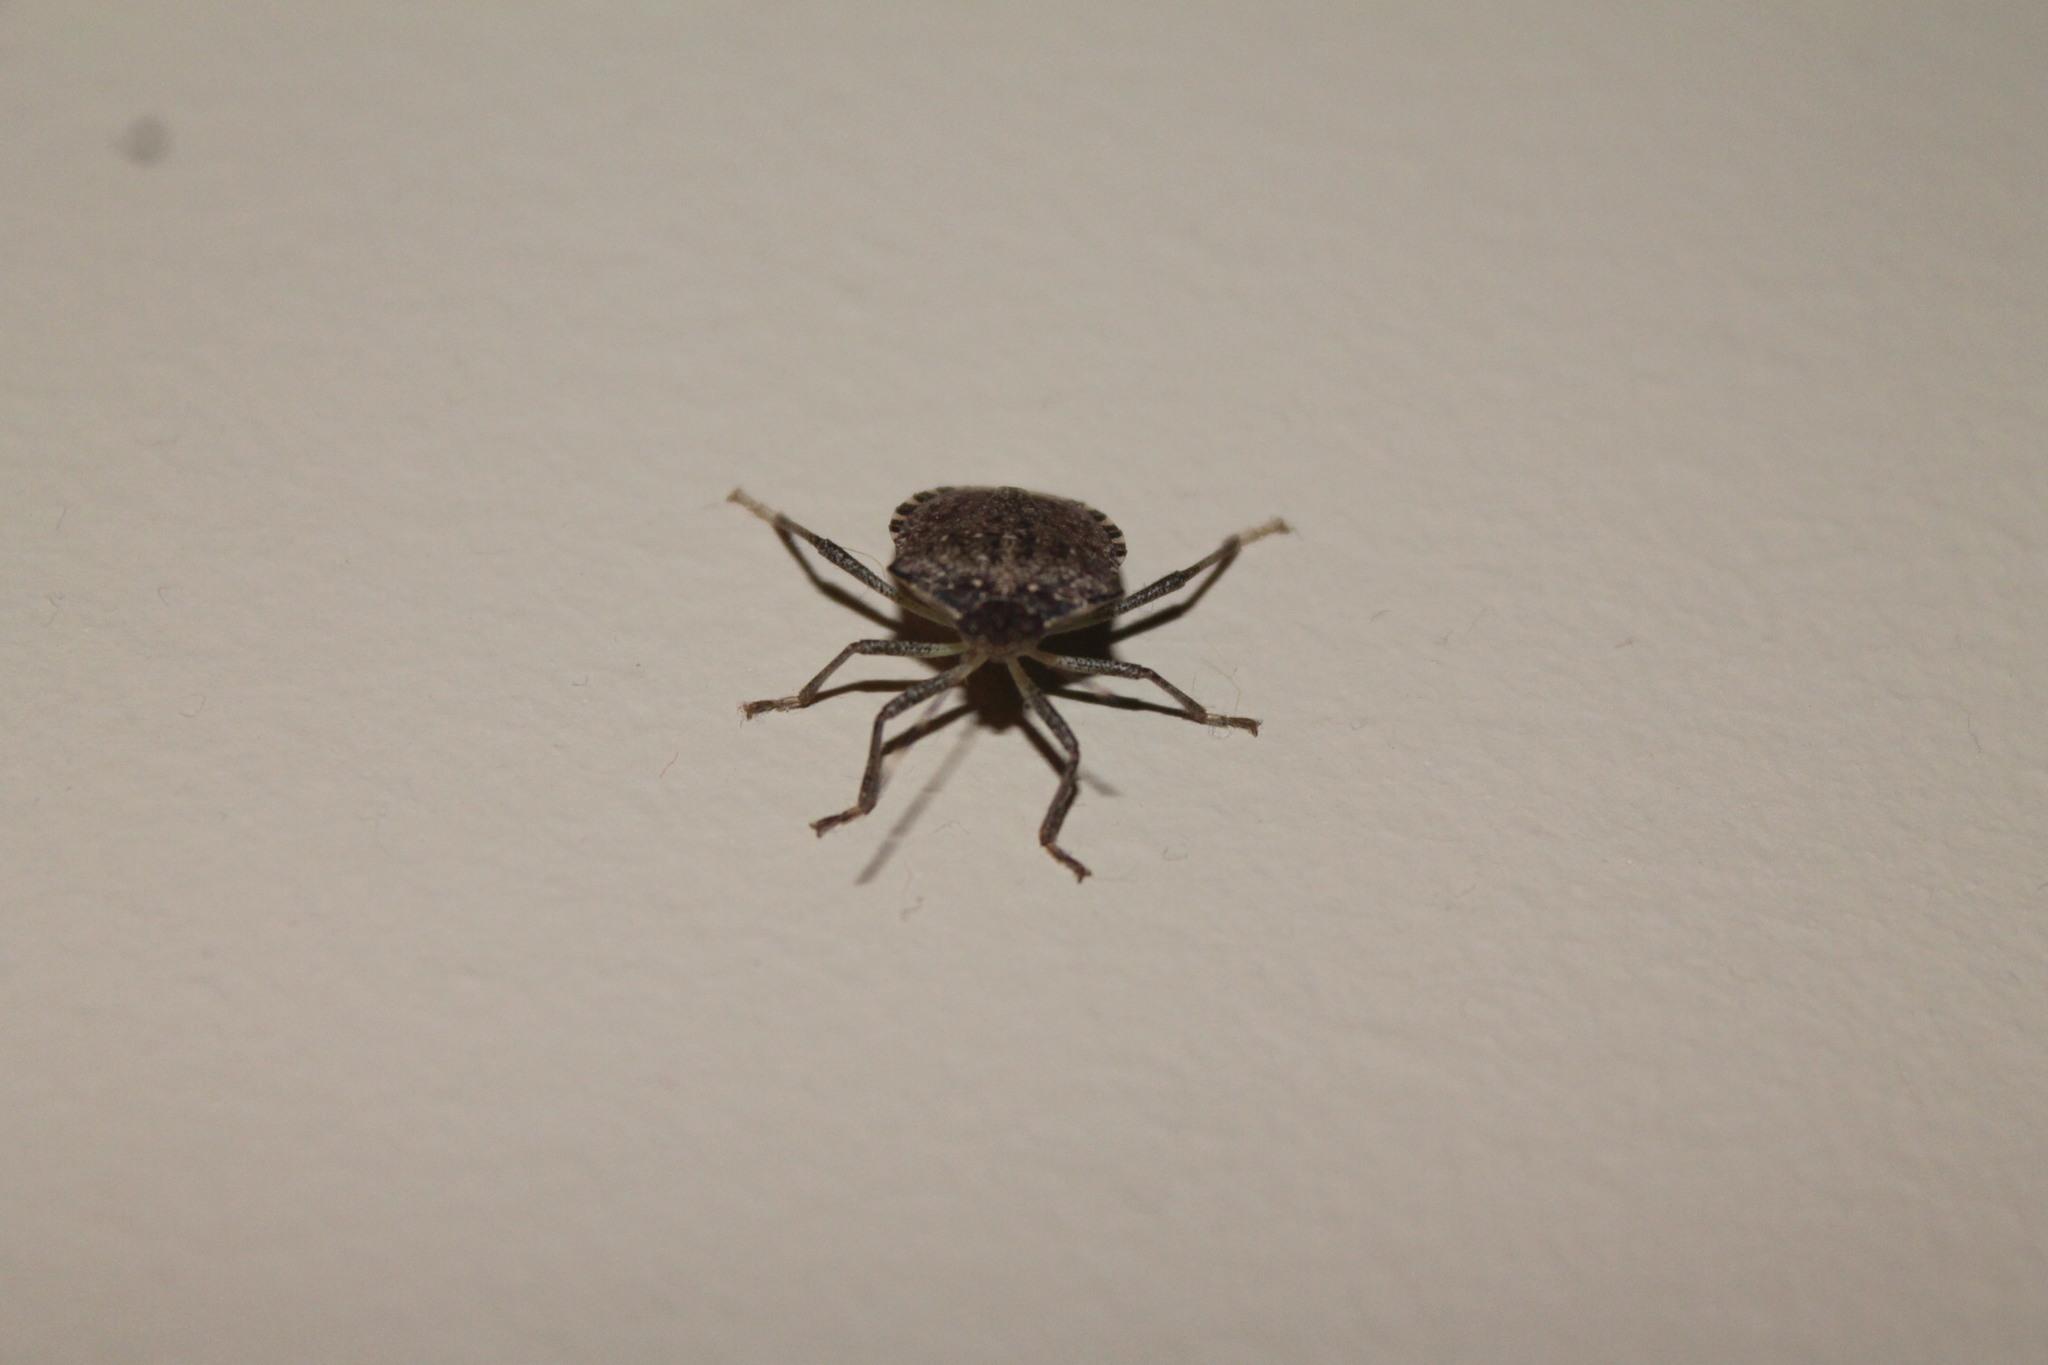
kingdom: Animalia
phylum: Arthropoda
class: Insecta
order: Hemiptera
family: Pentatomidae
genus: Halyomorpha
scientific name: Halyomorpha halys
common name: Brown marmorated stink bug
